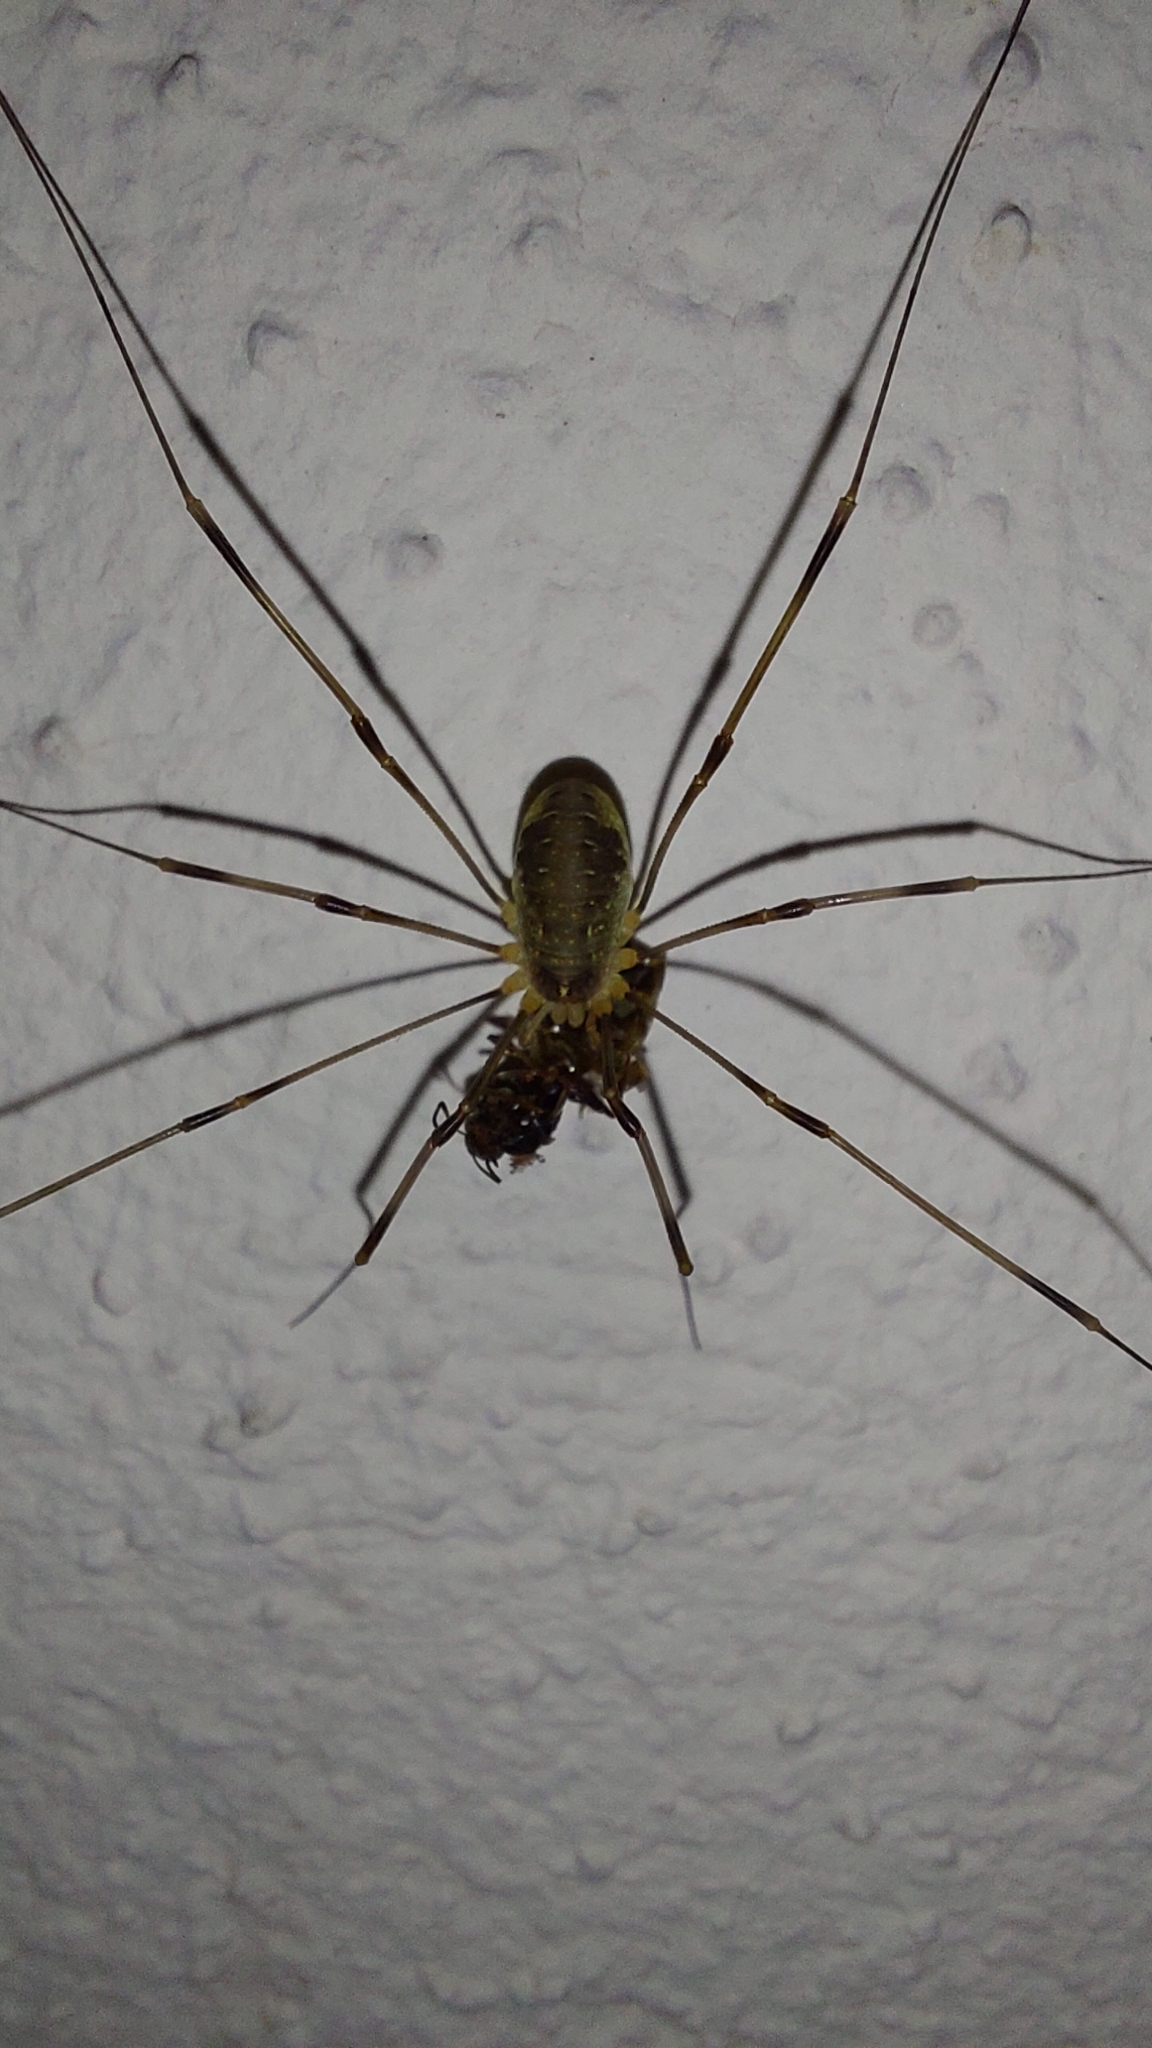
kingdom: Animalia
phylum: Arthropoda
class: Arachnida
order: Opiliones
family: Phalangiidae
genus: Opilio
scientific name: Opilio canestrinii
